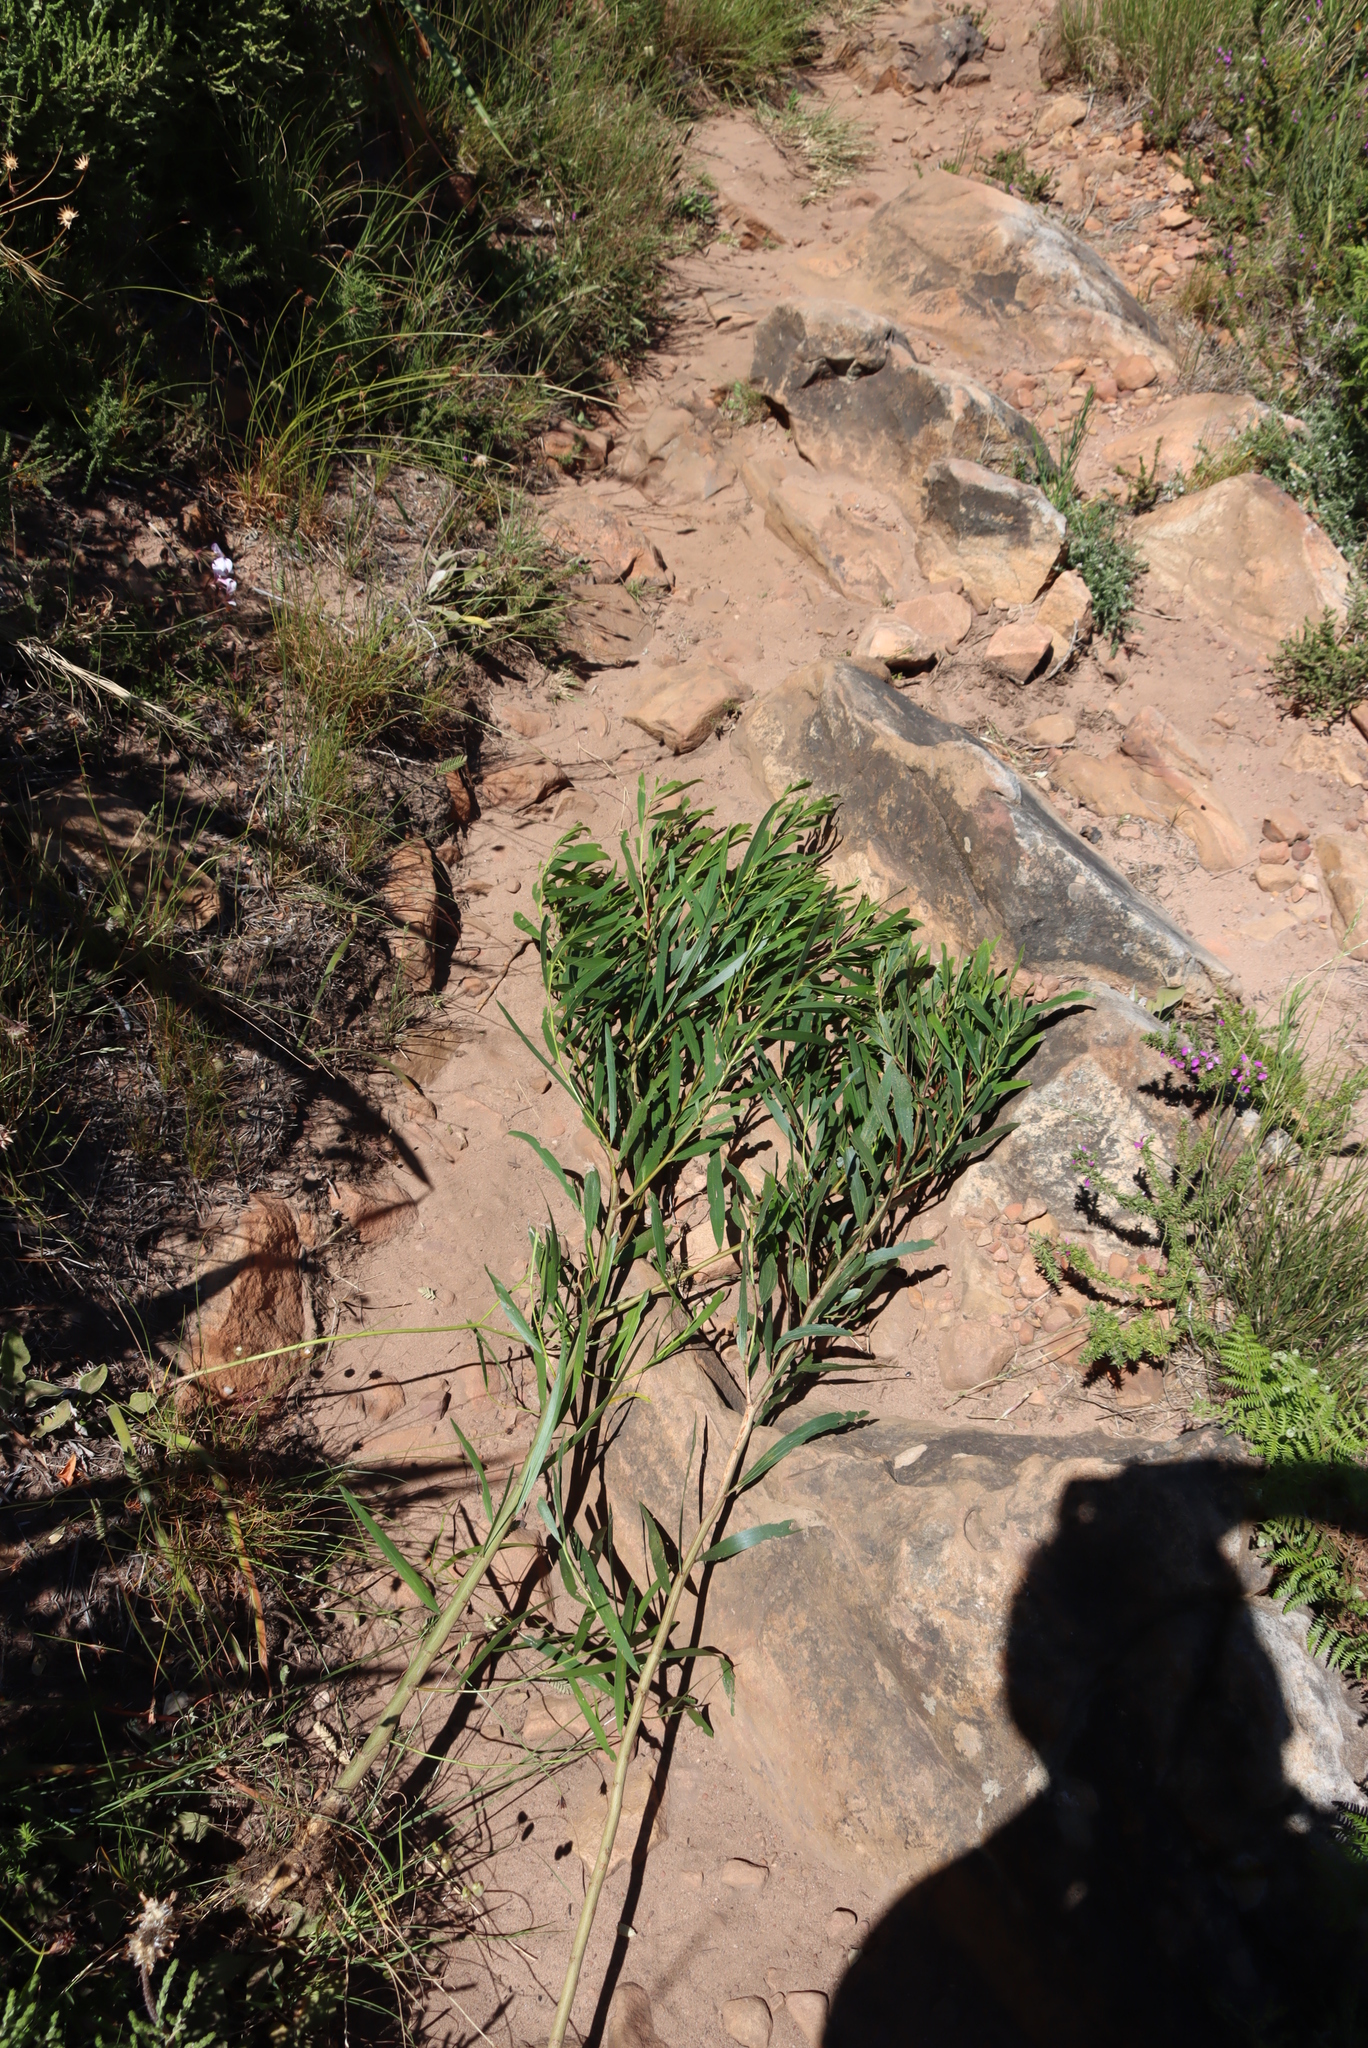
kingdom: Plantae
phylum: Tracheophyta
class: Magnoliopsida
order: Fabales
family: Fabaceae
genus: Acacia
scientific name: Acacia longifolia
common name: Sydney golden wattle
